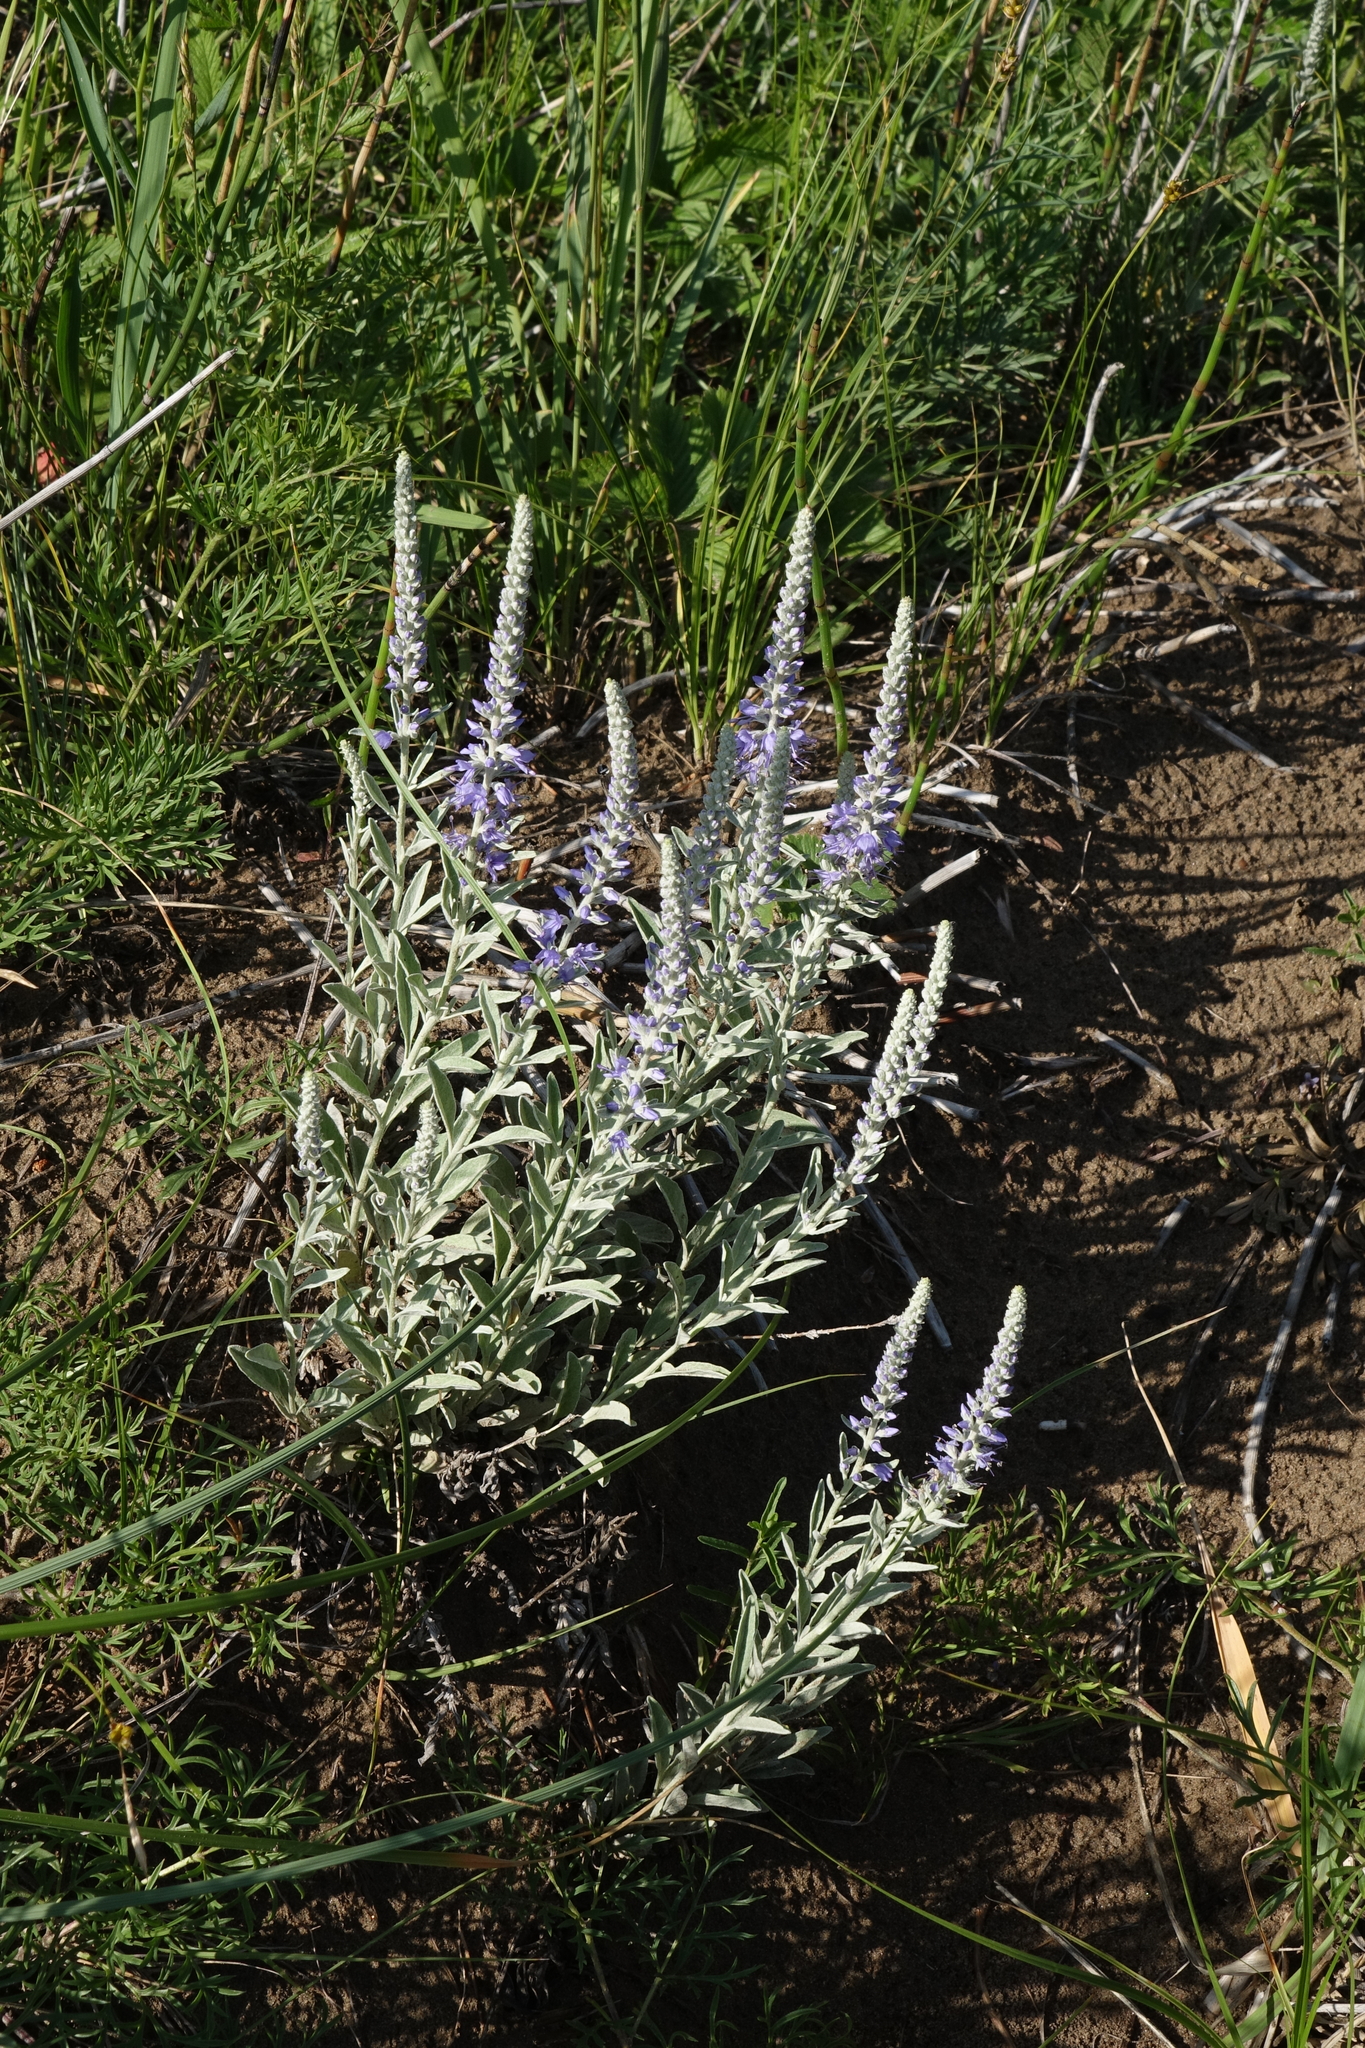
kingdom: Plantae
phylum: Tracheophyta
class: Magnoliopsida
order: Lamiales
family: Plantaginaceae
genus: Veronica
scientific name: Veronica incana
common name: Silver speedwell
